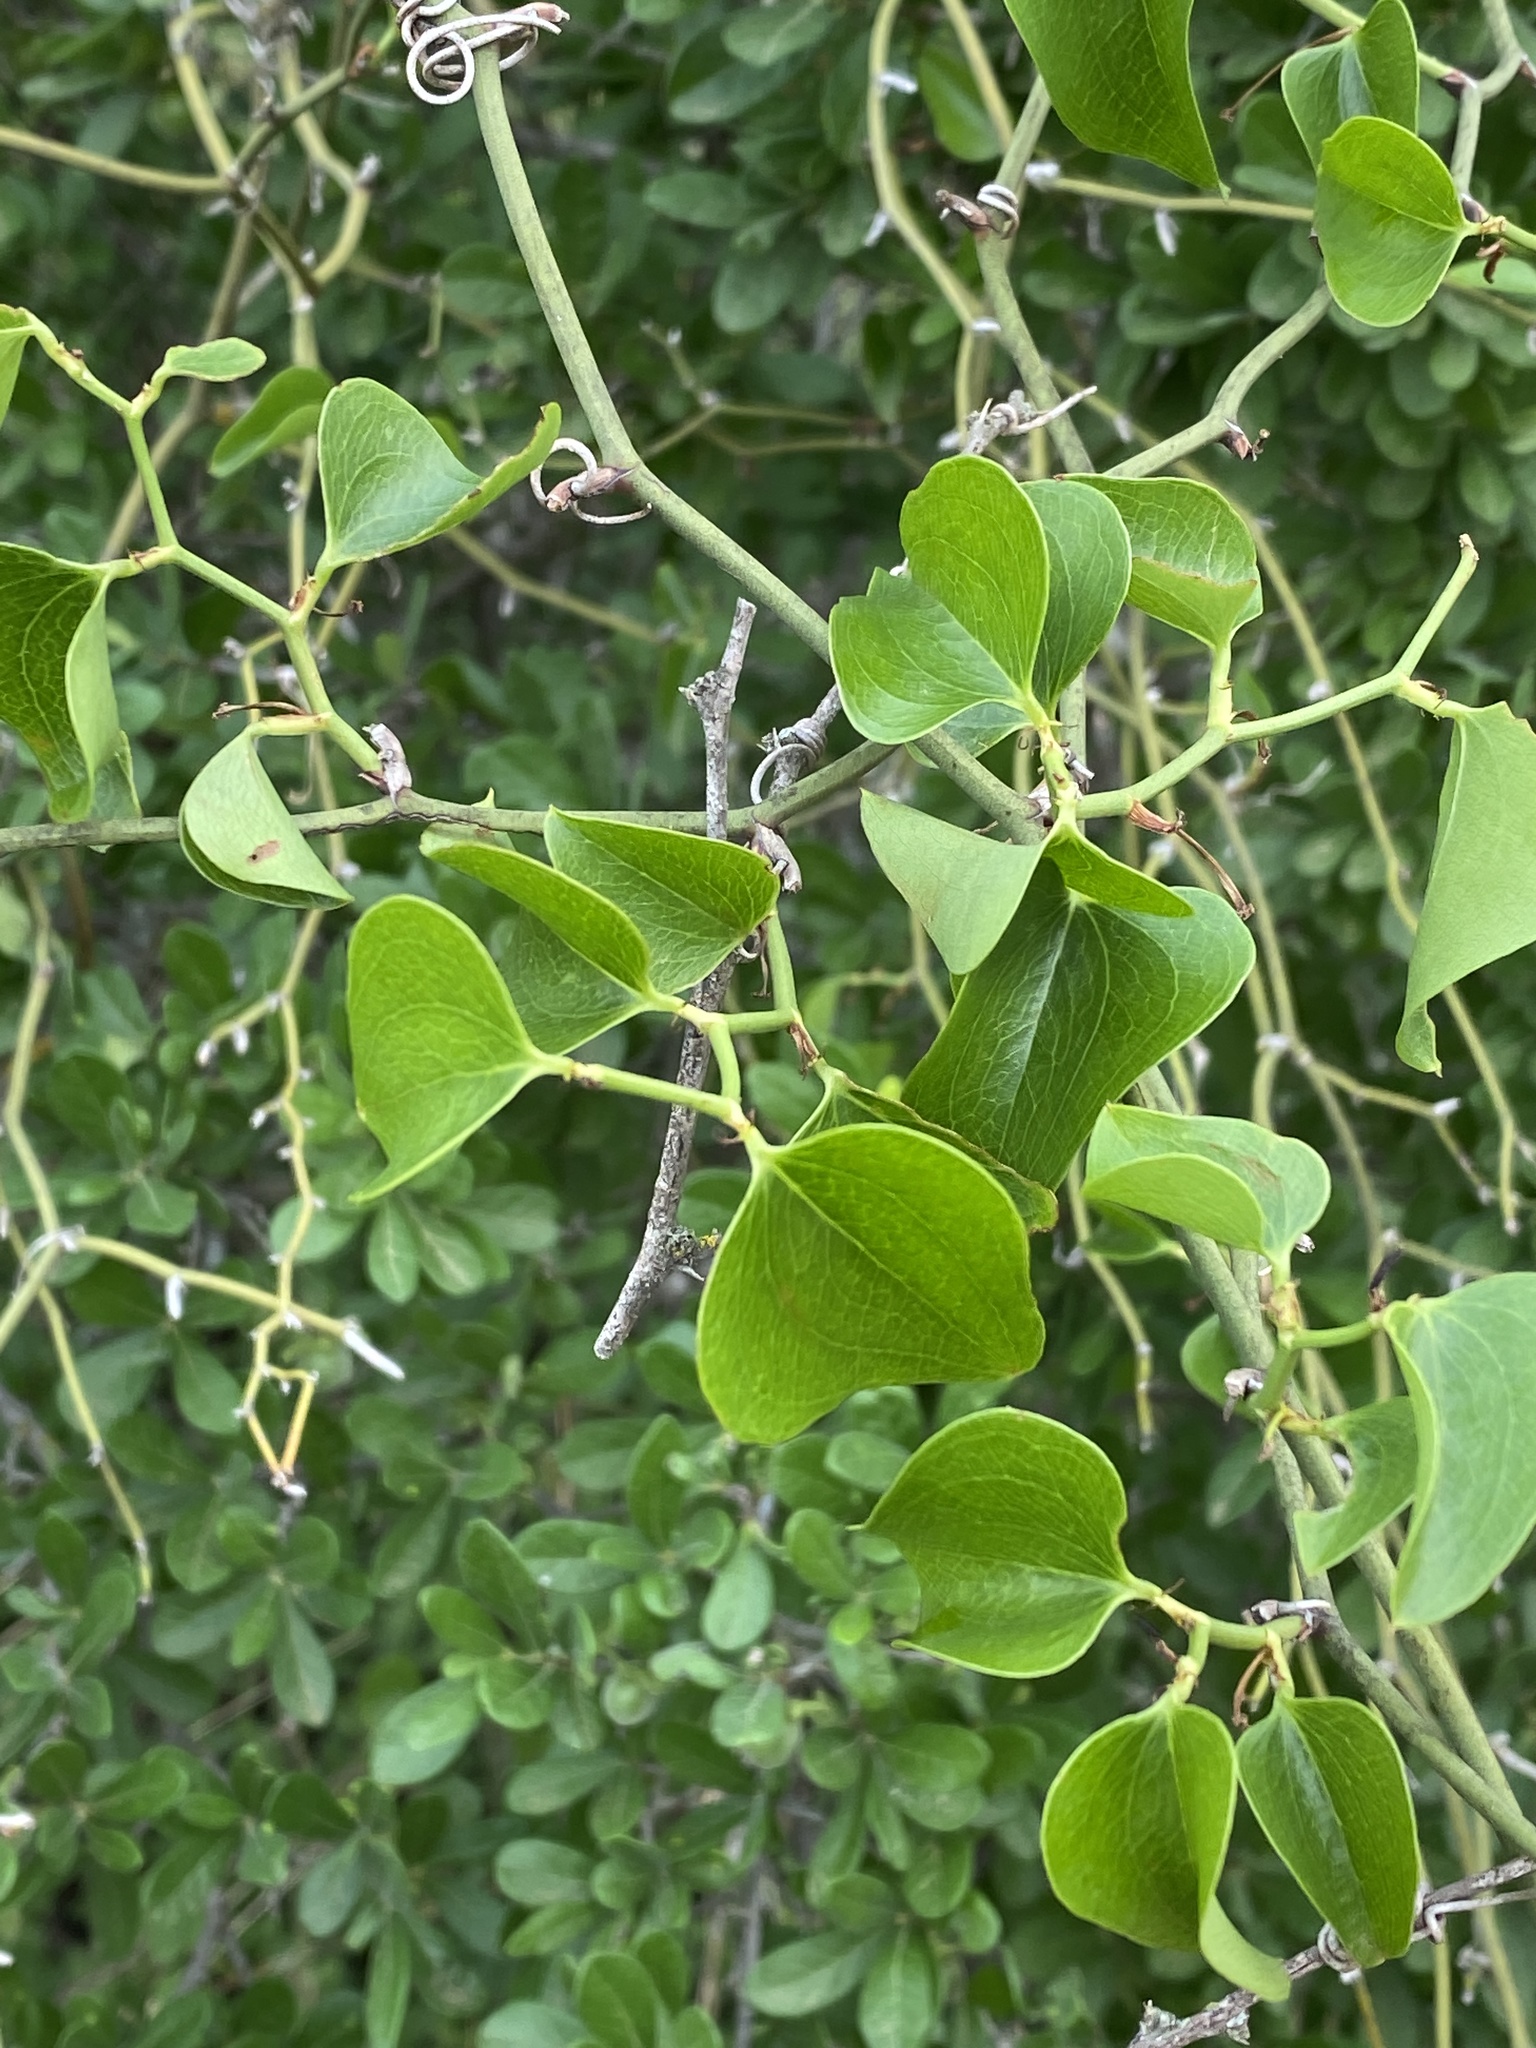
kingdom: Plantae
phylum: Tracheophyta
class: Liliopsida
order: Liliales
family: Smilacaceae
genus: Smilax
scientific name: Smilax bona-nox
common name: Catbrier
